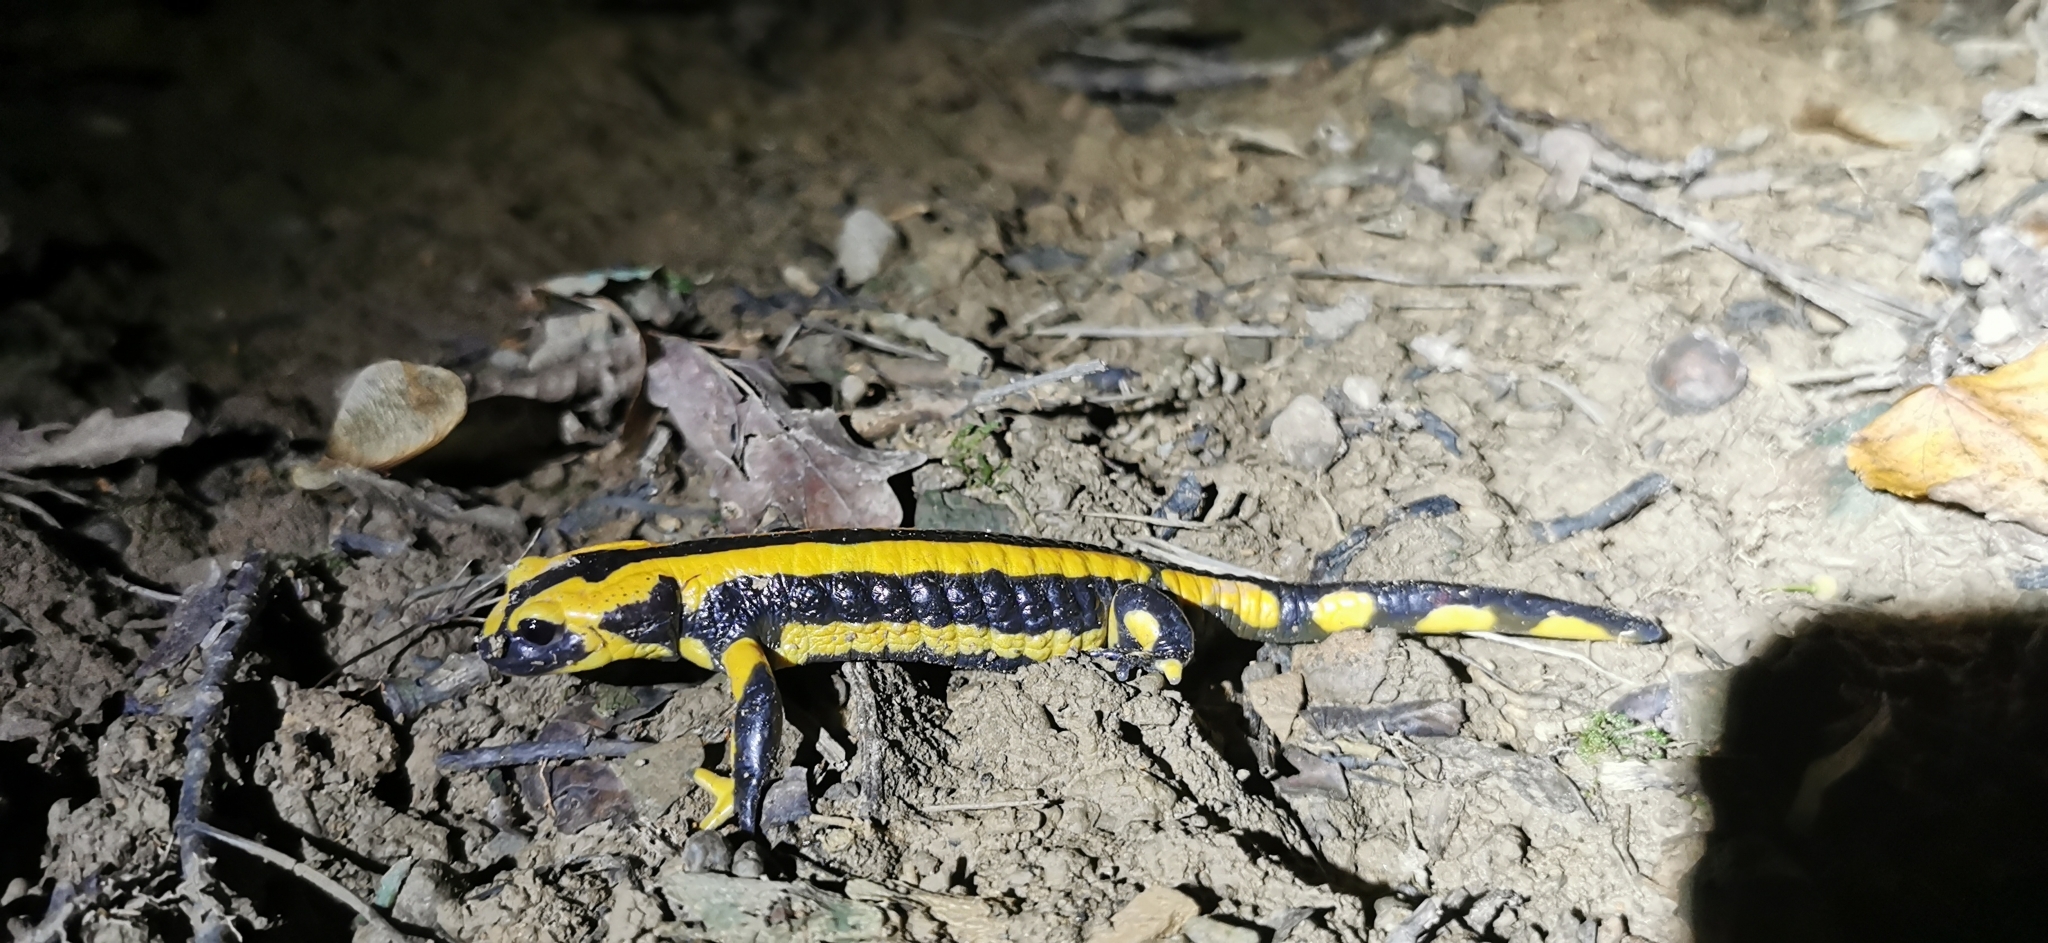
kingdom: Animalia
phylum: Chordata
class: Amphibia
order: Caudata
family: Salamandridae
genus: Salamandra
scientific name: Salamandra salamandra
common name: Fire salamander
